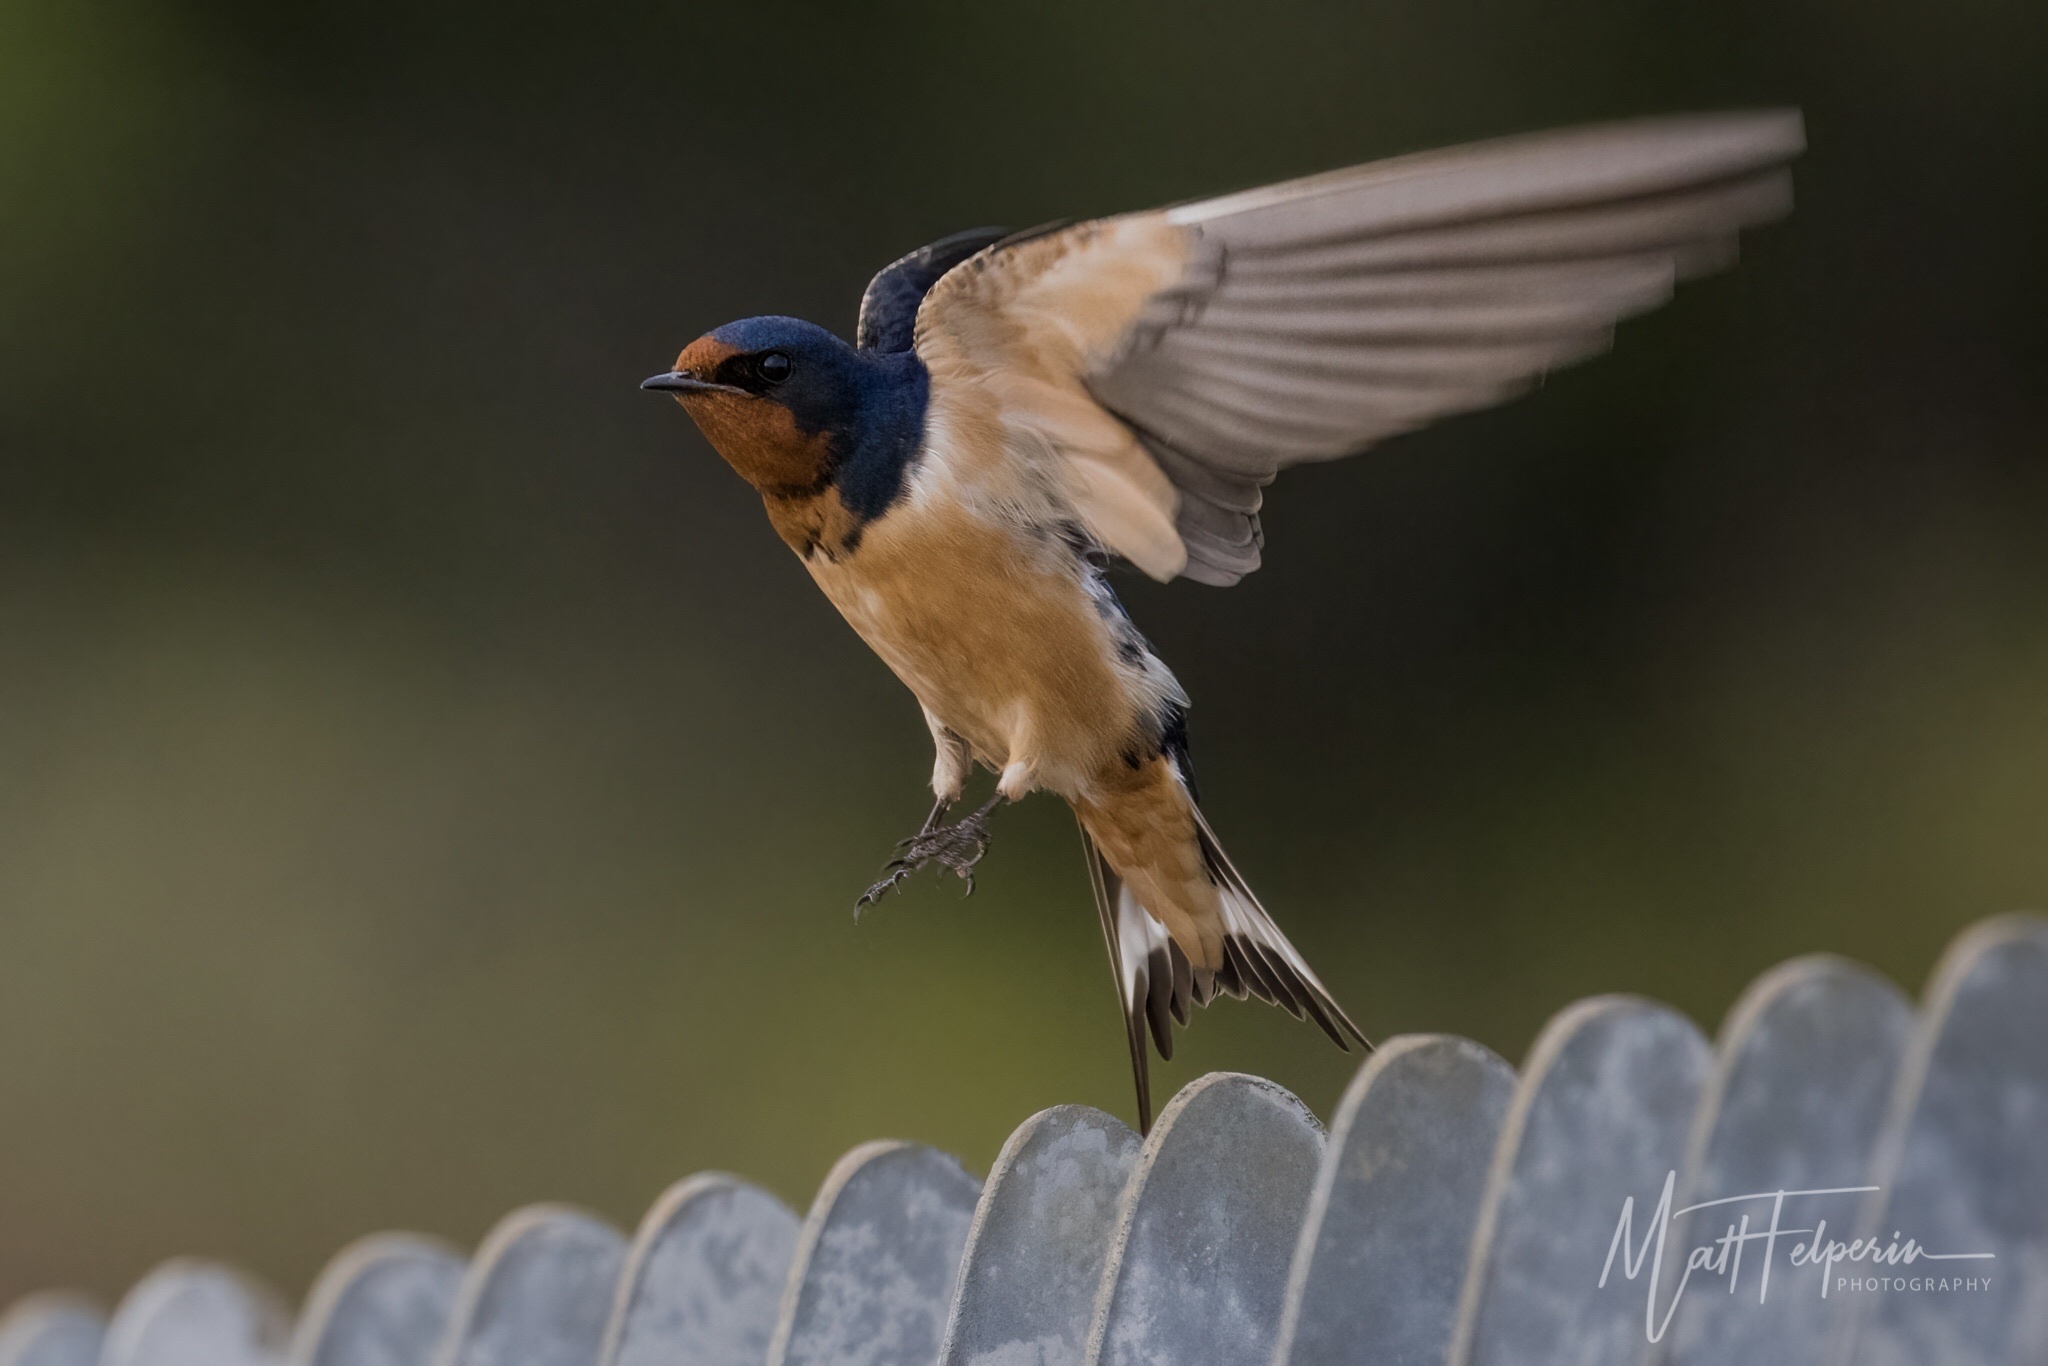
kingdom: Animalia
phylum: Chordata
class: Aves
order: Passeriformes
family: Hirundinidae
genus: Hirundo
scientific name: Hirundo rustica
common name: Barn swallow
